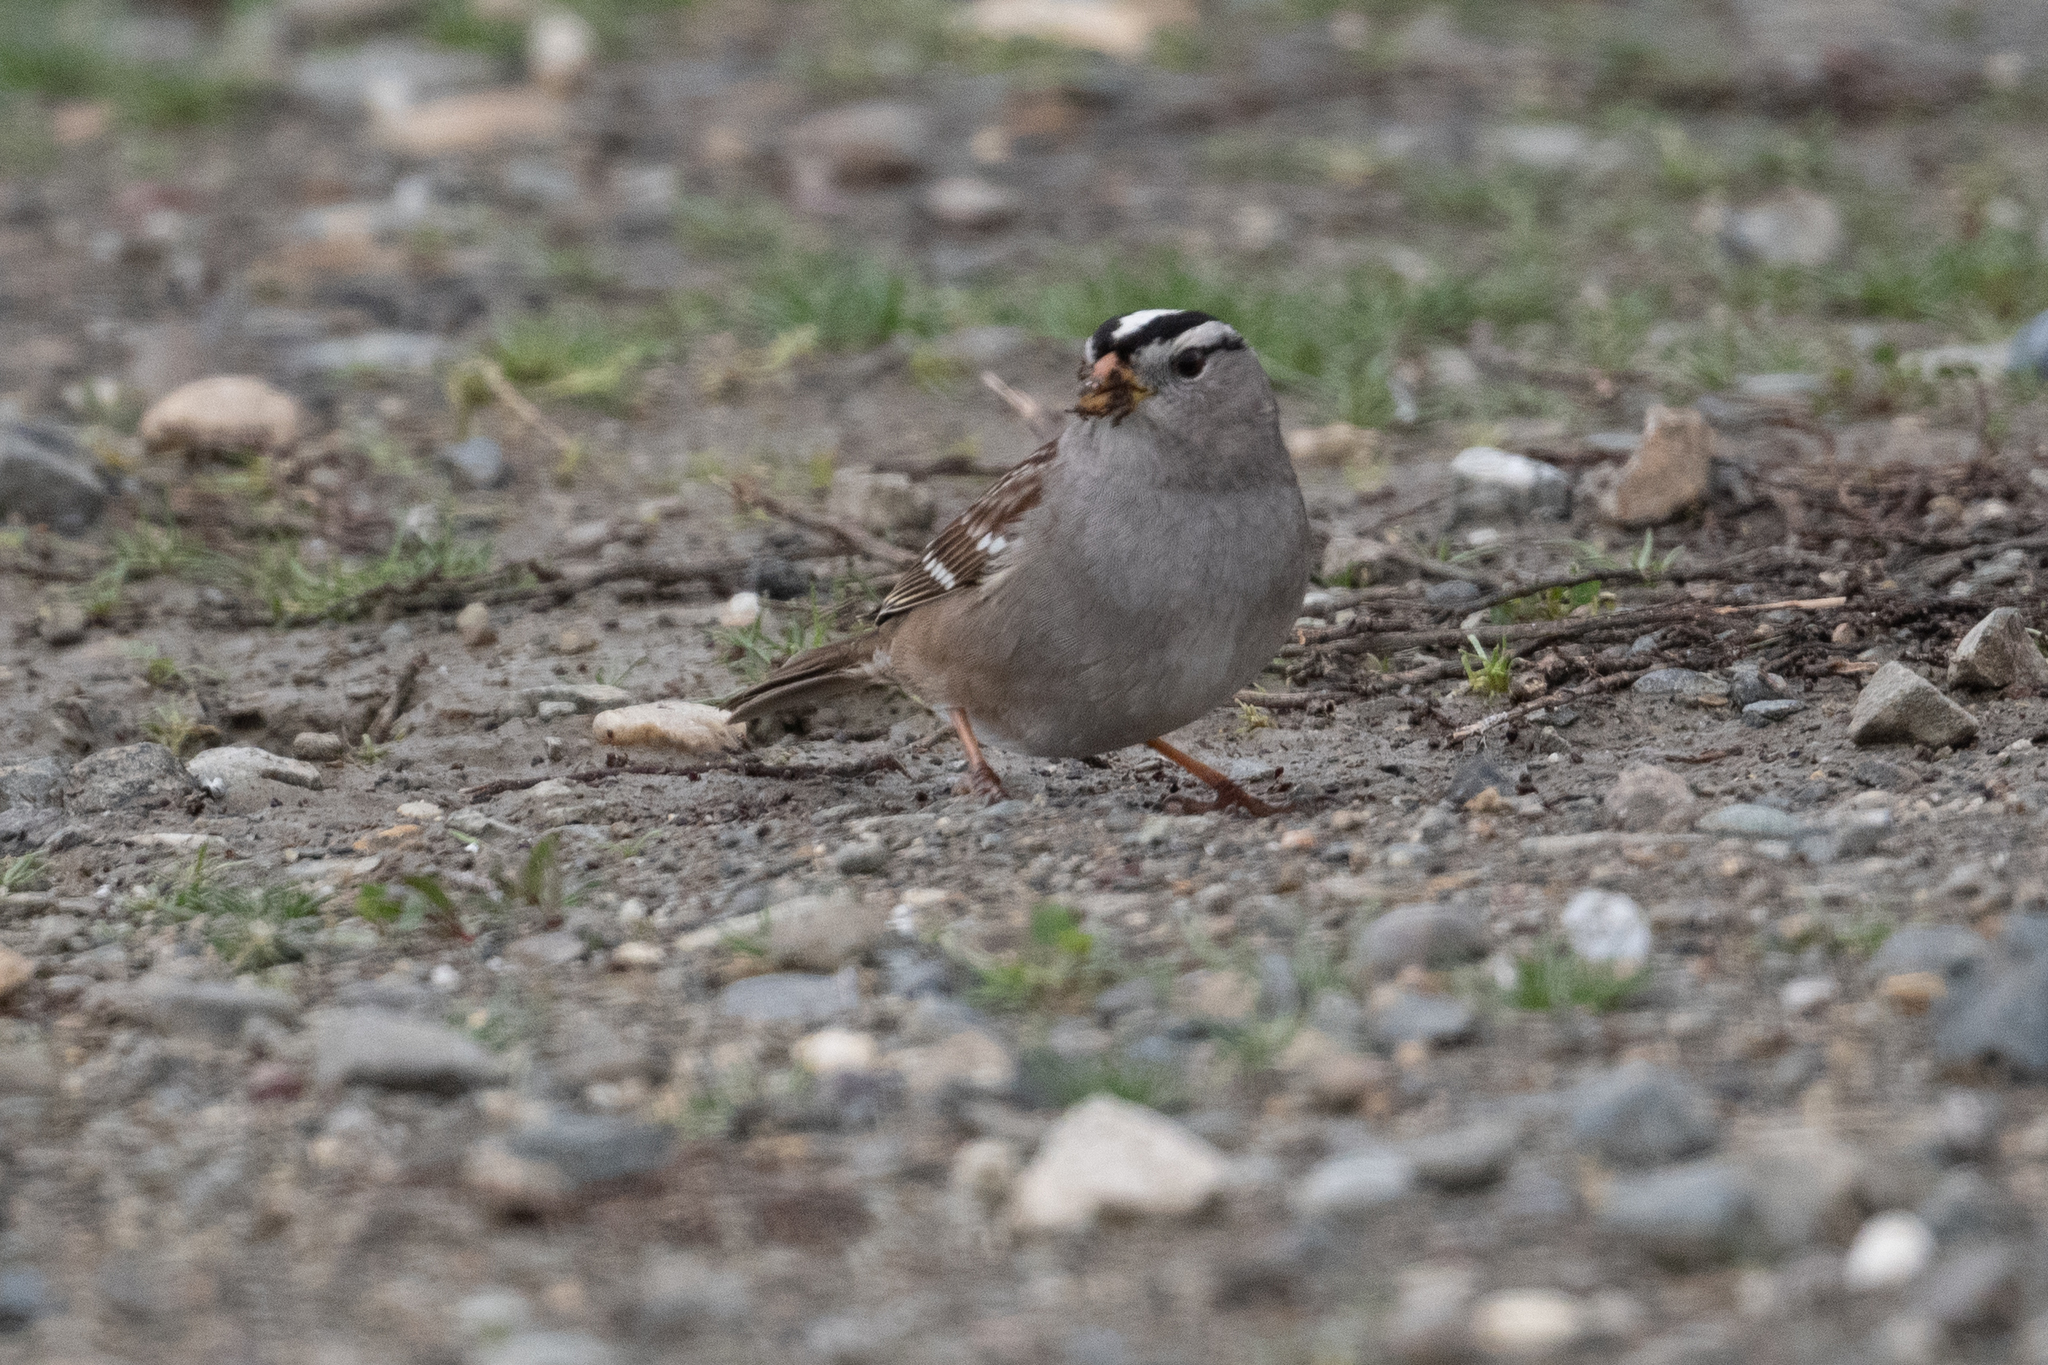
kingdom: Animalia
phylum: Chordata
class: Aves
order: Passeriformes
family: Passerellidae
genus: Zonotrichia
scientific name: Zonotrichia leucophrys
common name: White-crowned sparrow
